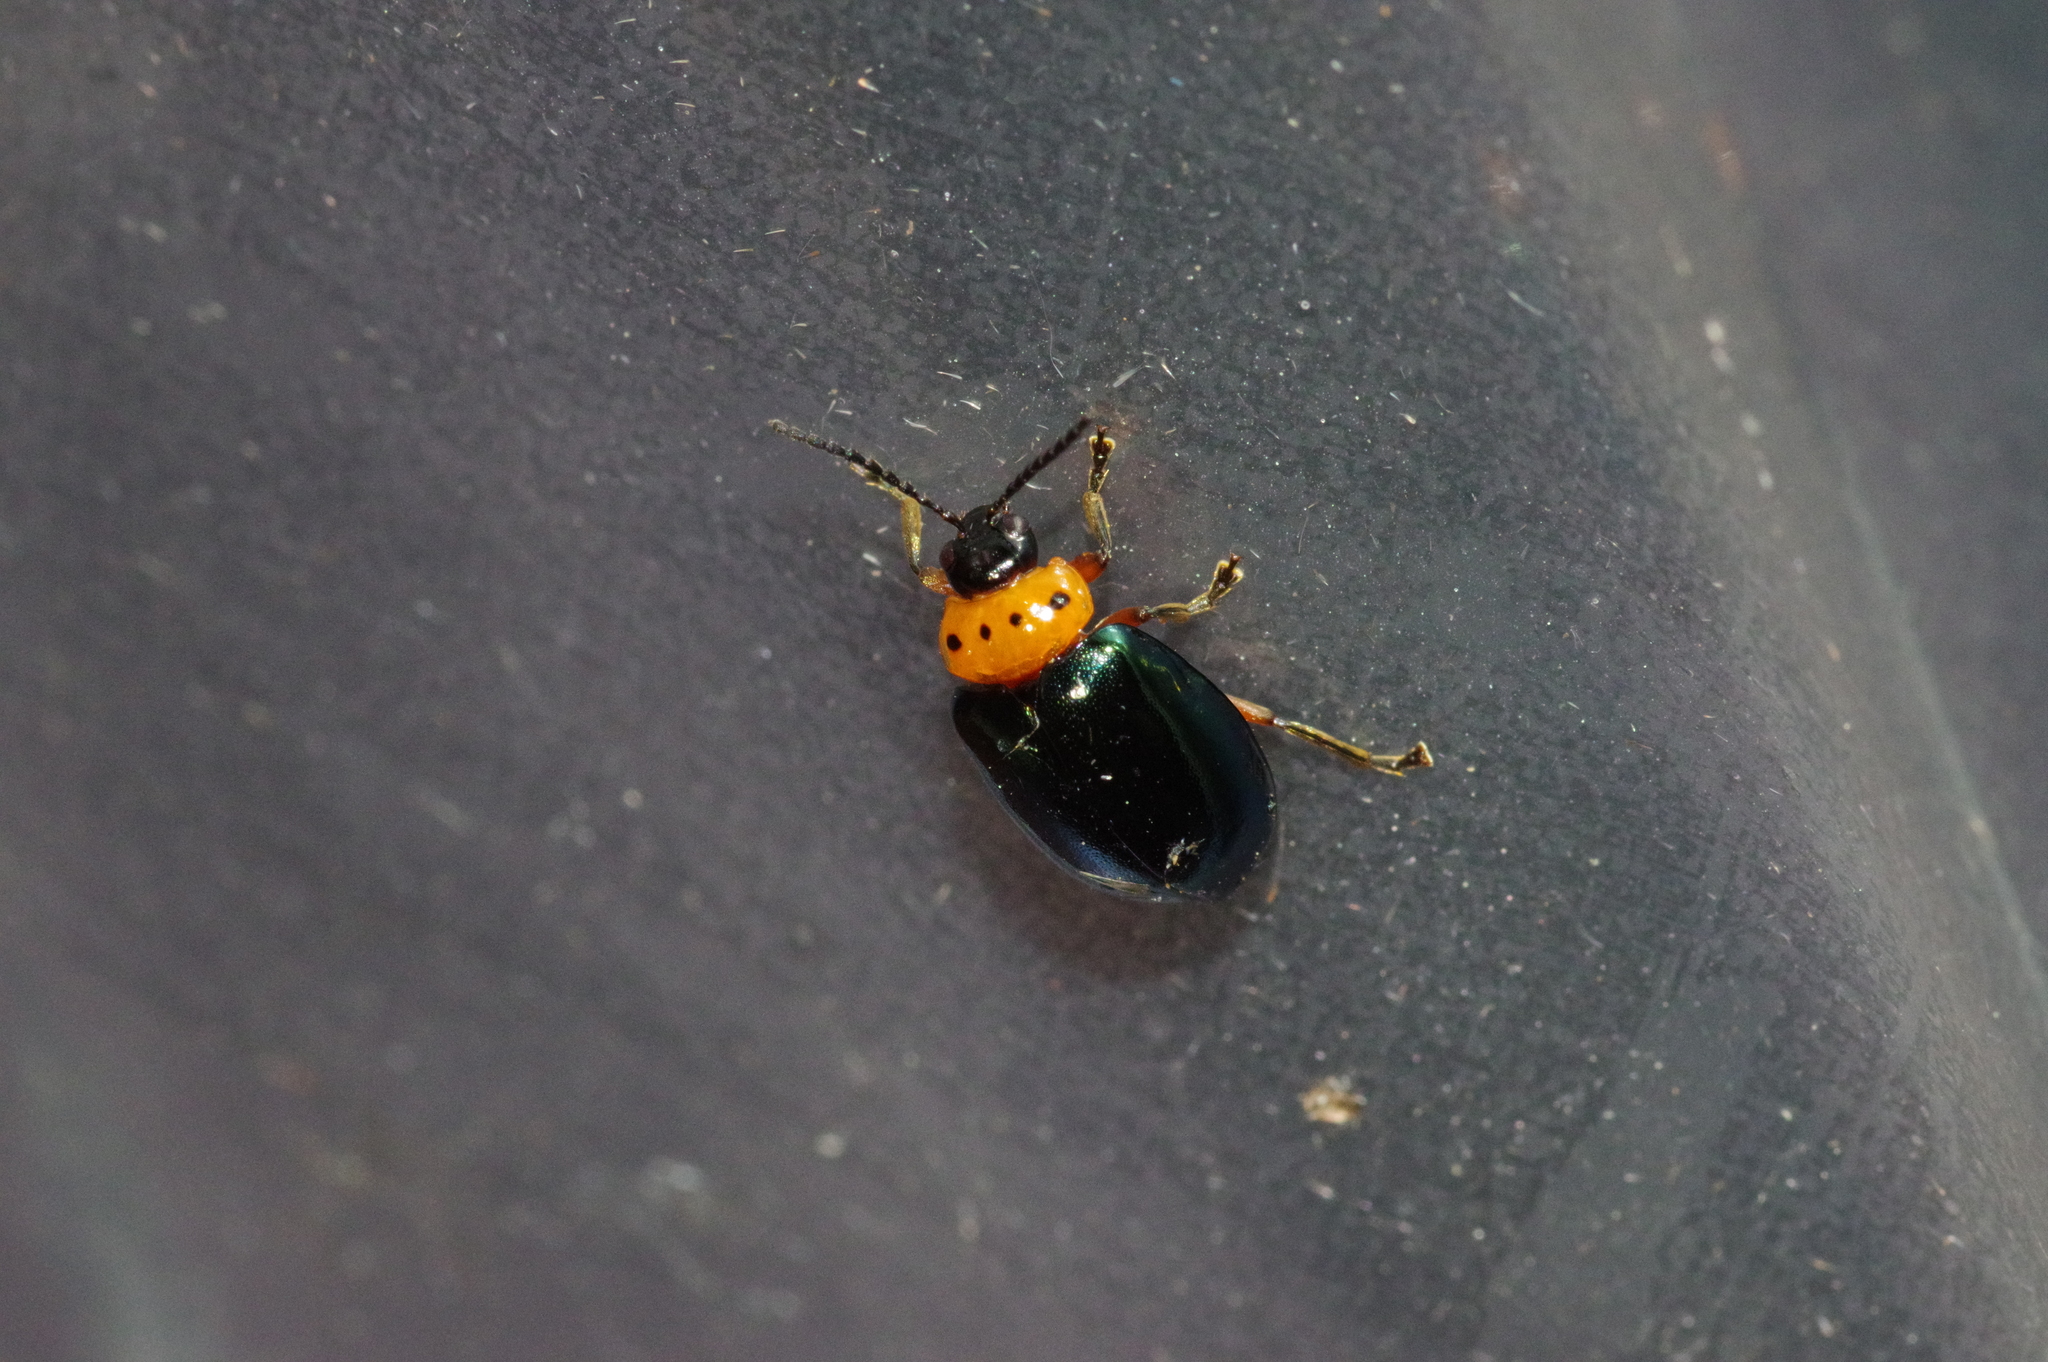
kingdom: Animalia
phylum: Arthropoda
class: Insecta
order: Coleoptera
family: Chrysomelidae
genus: Morphosphaera
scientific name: Morphosphaera caerulea
